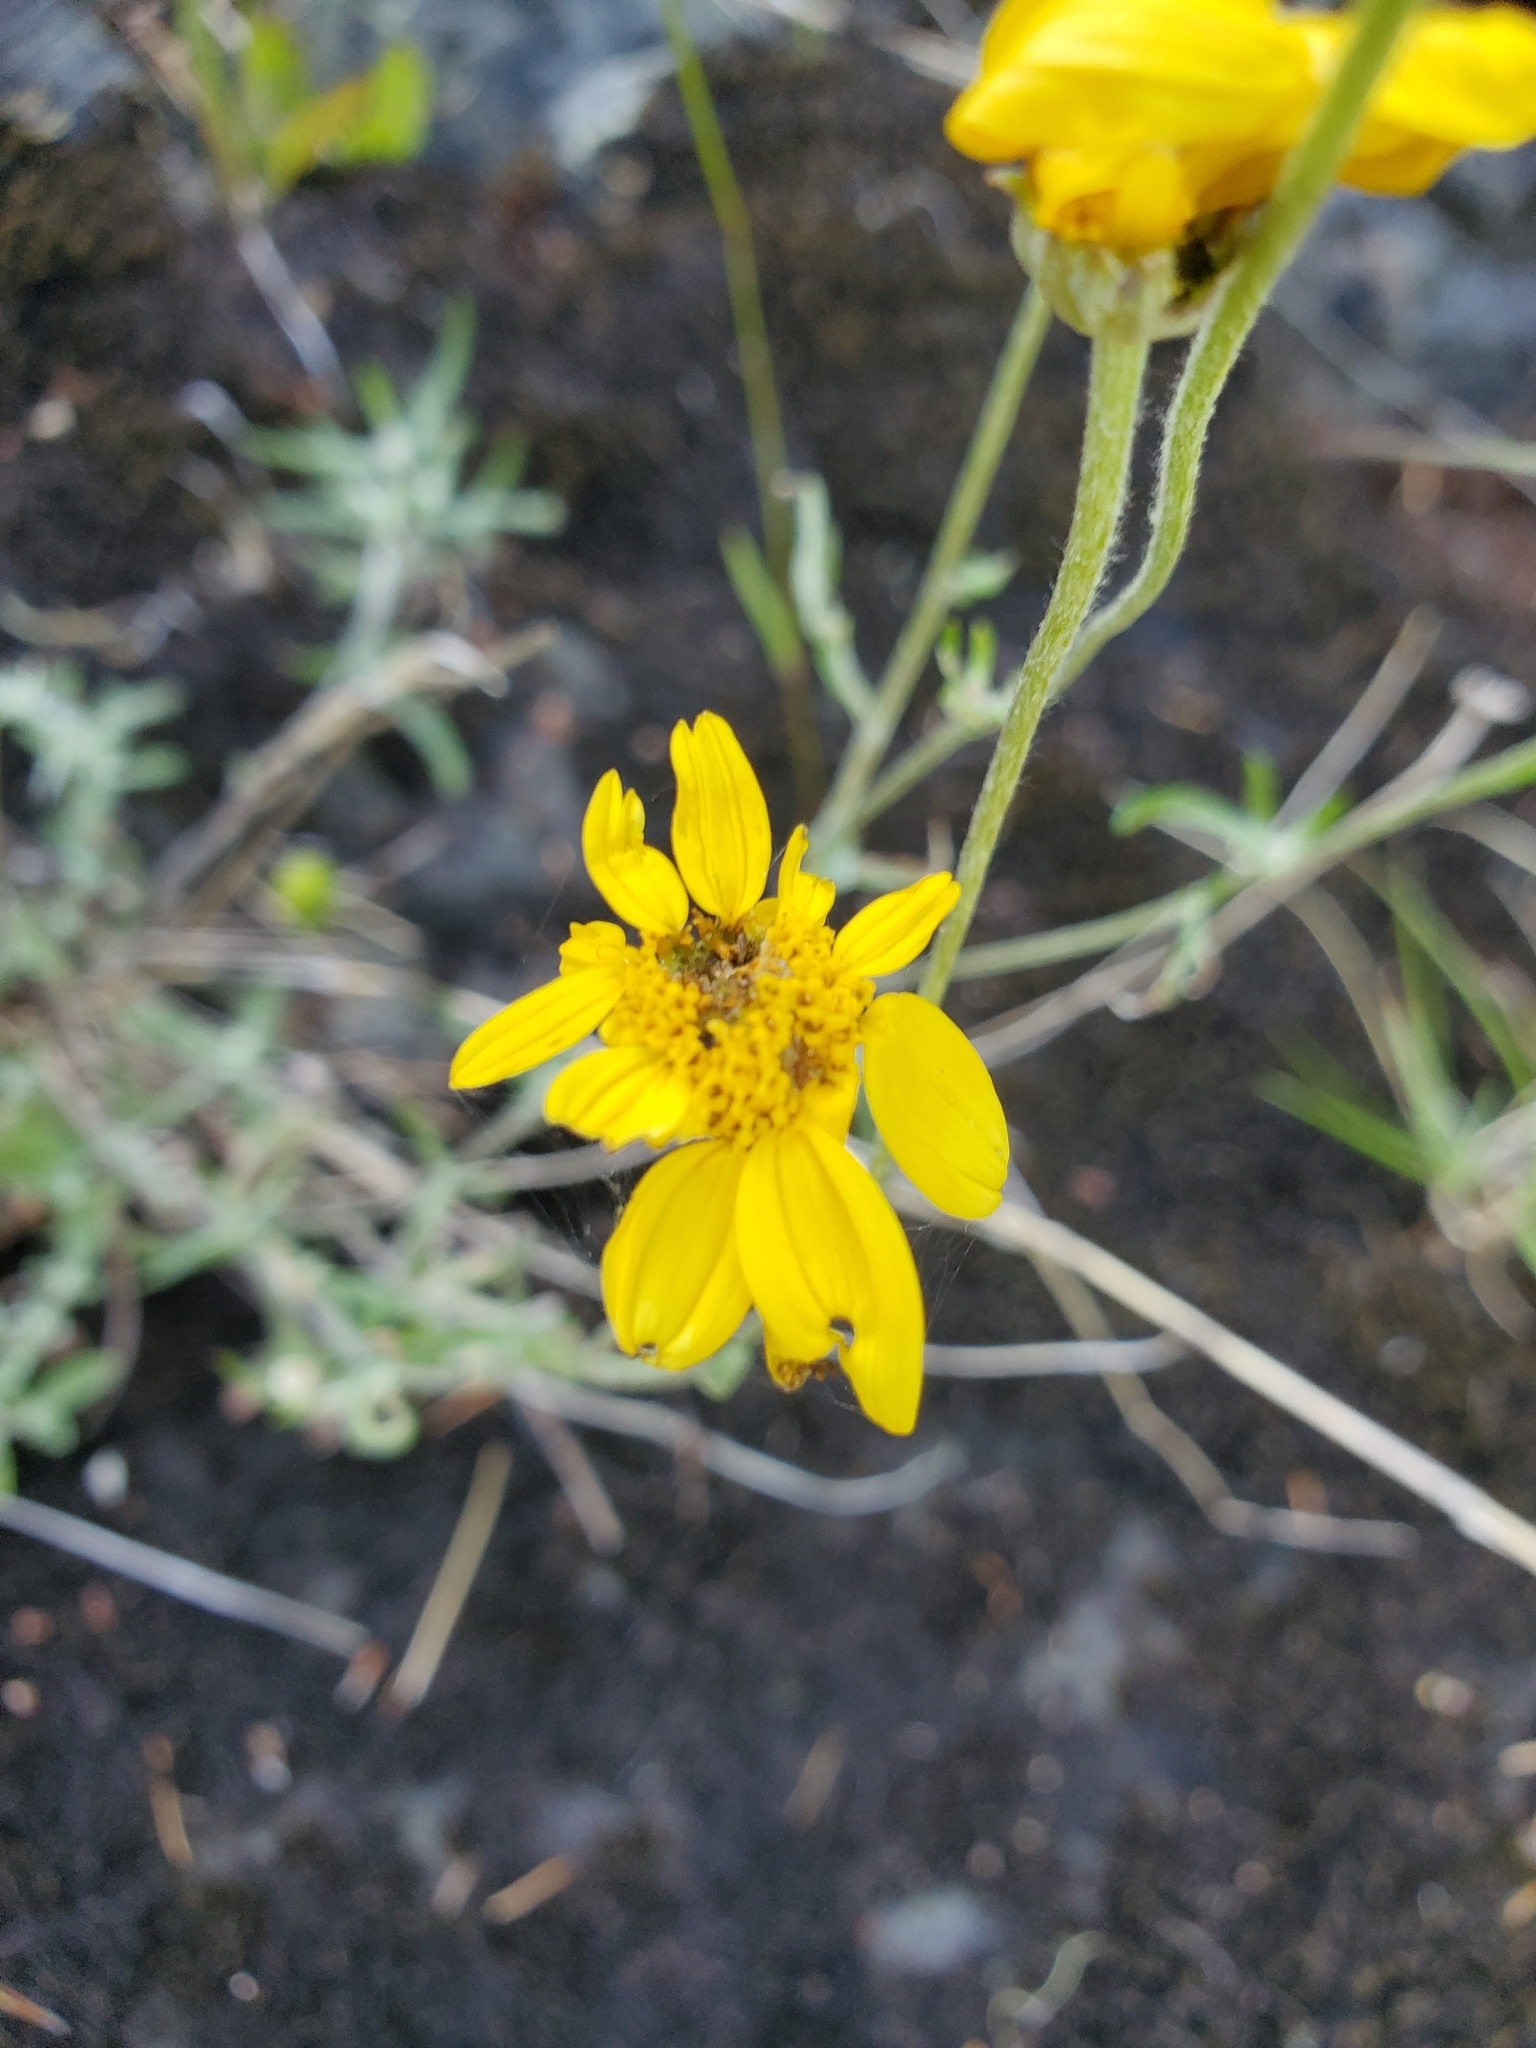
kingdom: Plantae
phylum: Tracheophyta
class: Magnoliopsida
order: Asterales
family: Asteraceae
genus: Eriophyllum
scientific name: Eriophyllum lanatum
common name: Common woolly-sunflower
